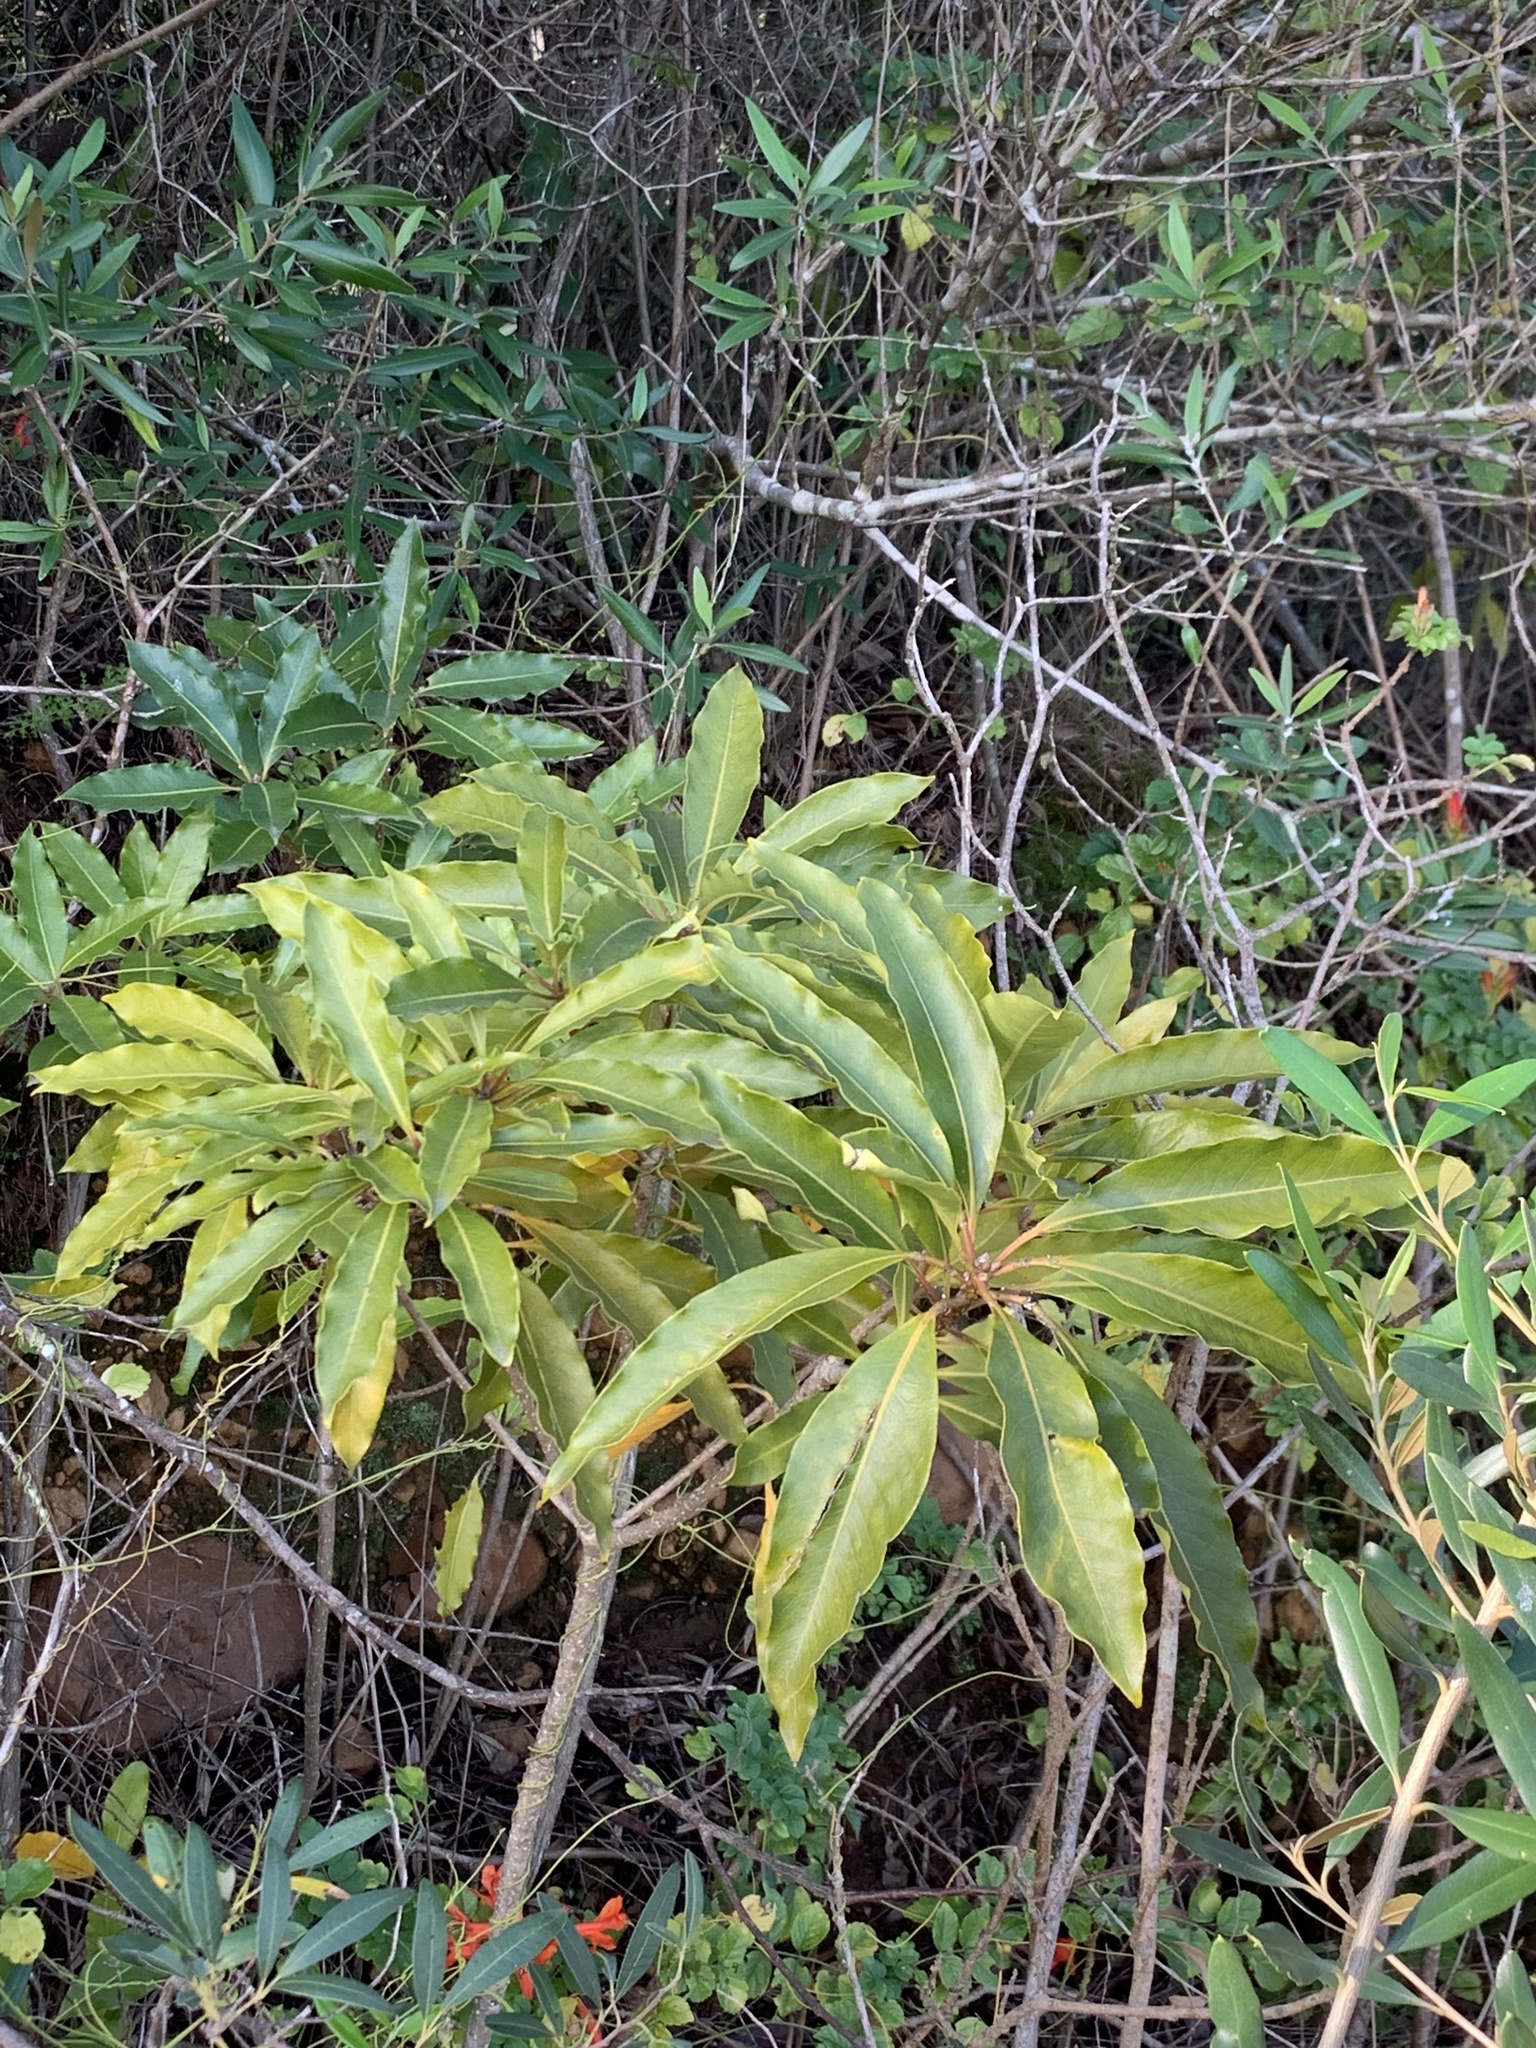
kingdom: Plantae
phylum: Tracheophyta
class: Magnoliopsida
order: Apiales
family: Pittosporaceae
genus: Pittosporum
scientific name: Pittosporum undulatum
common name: Australian cheesewood
